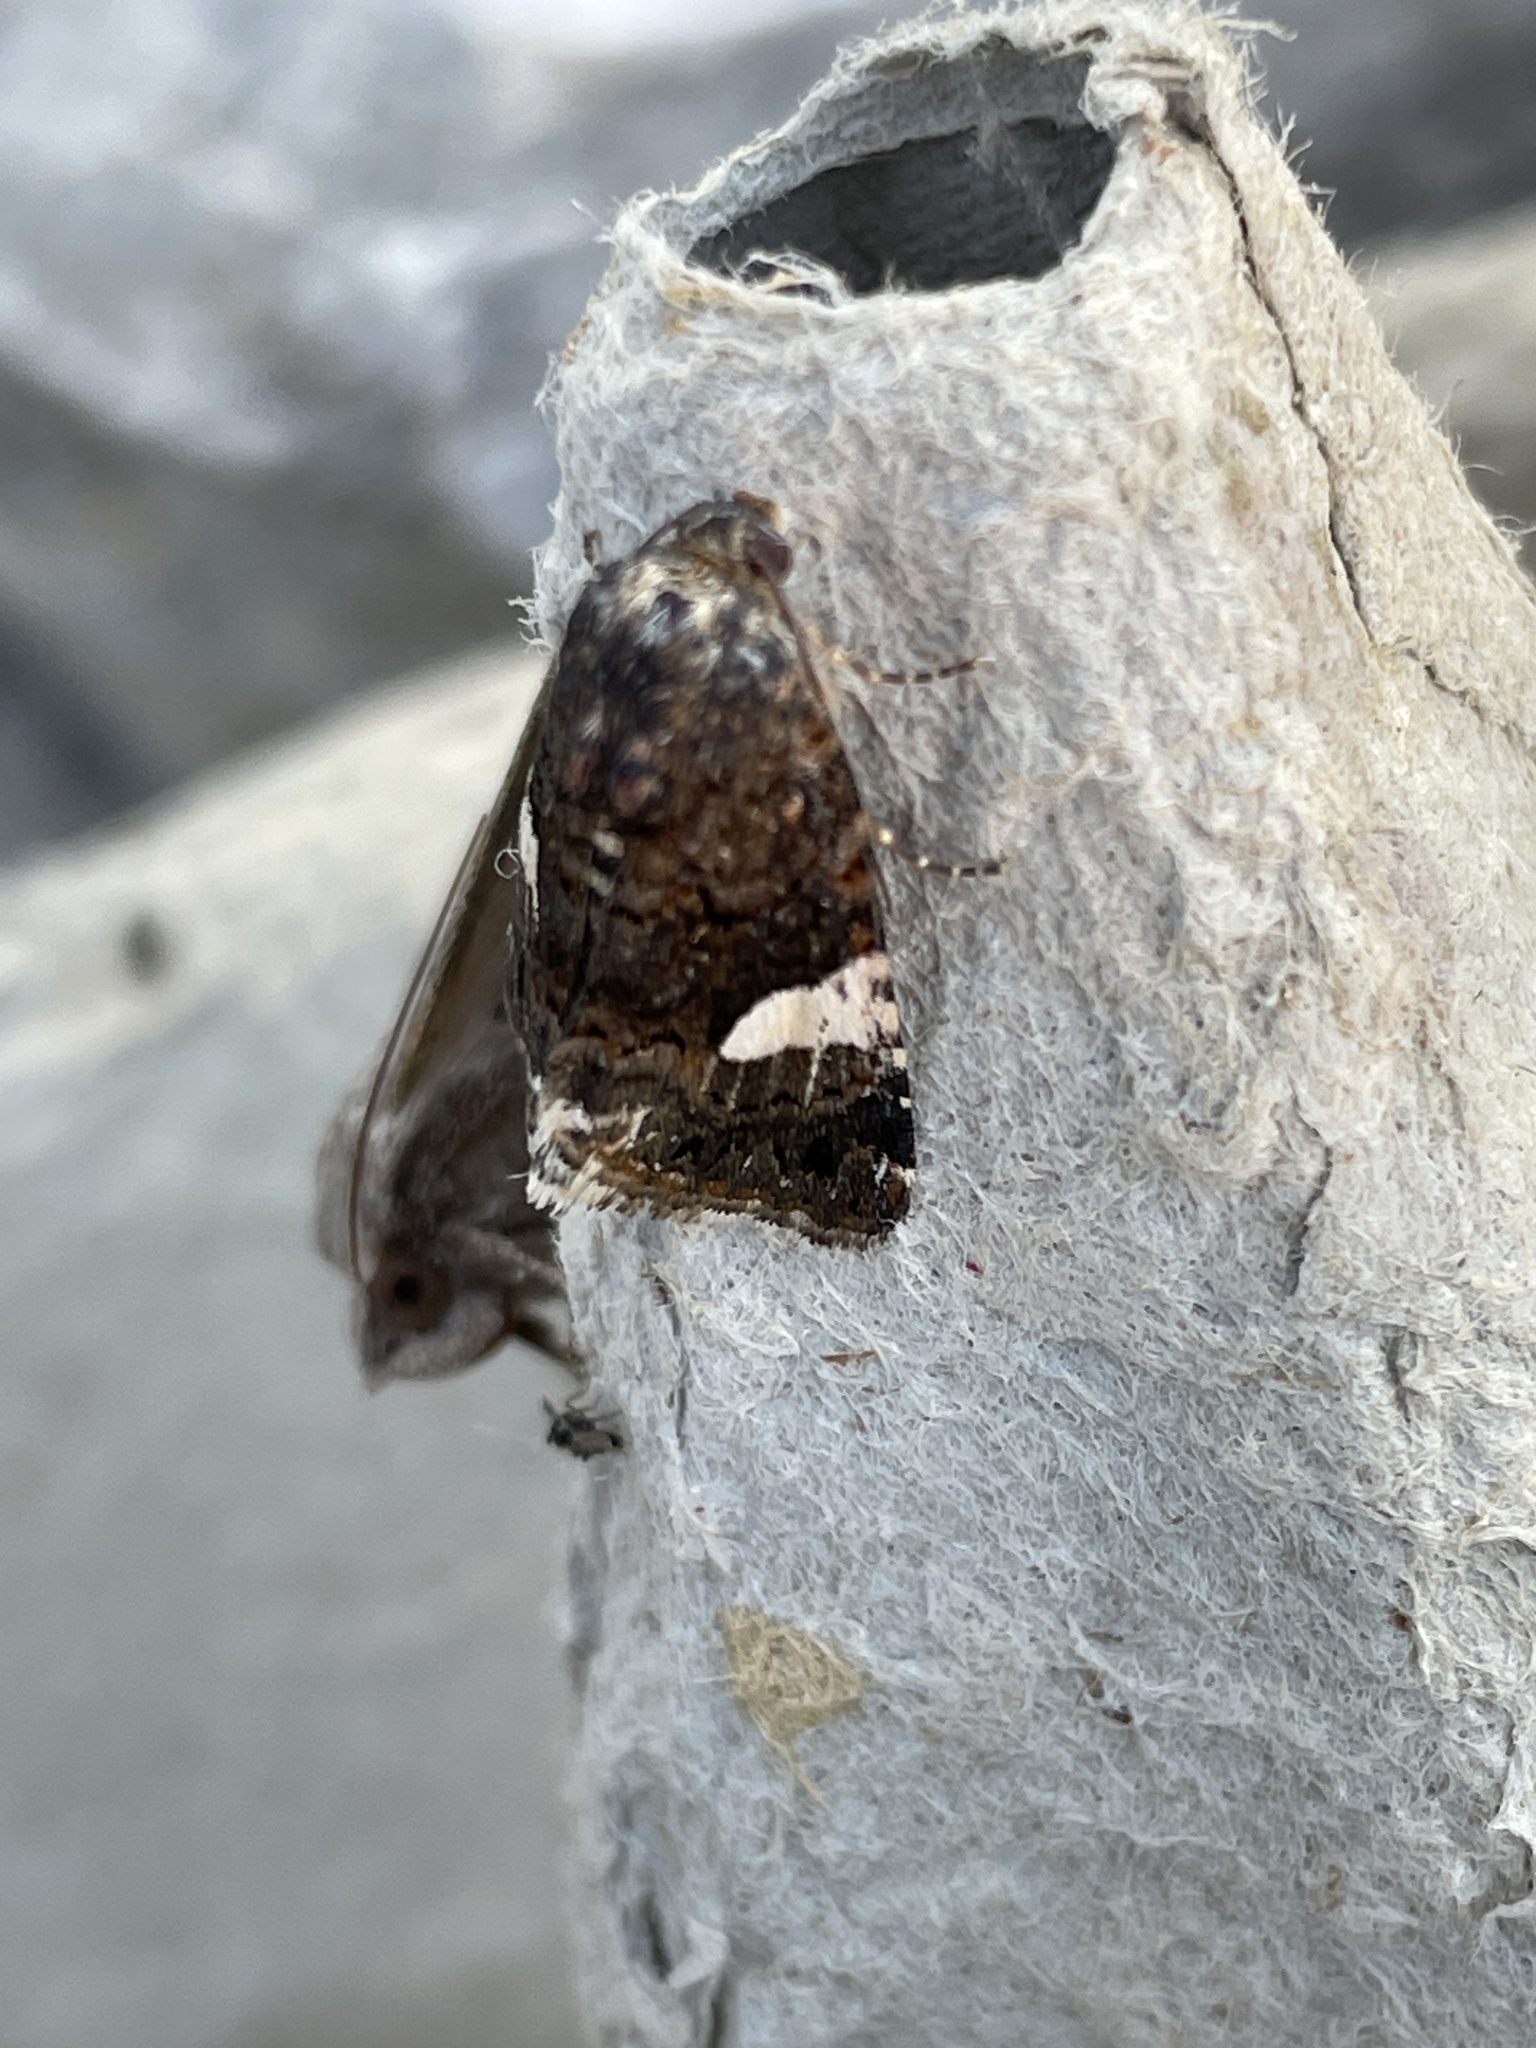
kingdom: Animalia
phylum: Arthropoda
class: Insecta
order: Lepidoptera
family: Erebidae
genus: Tyta
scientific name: Tyta luctuosa
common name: Four-spotted
